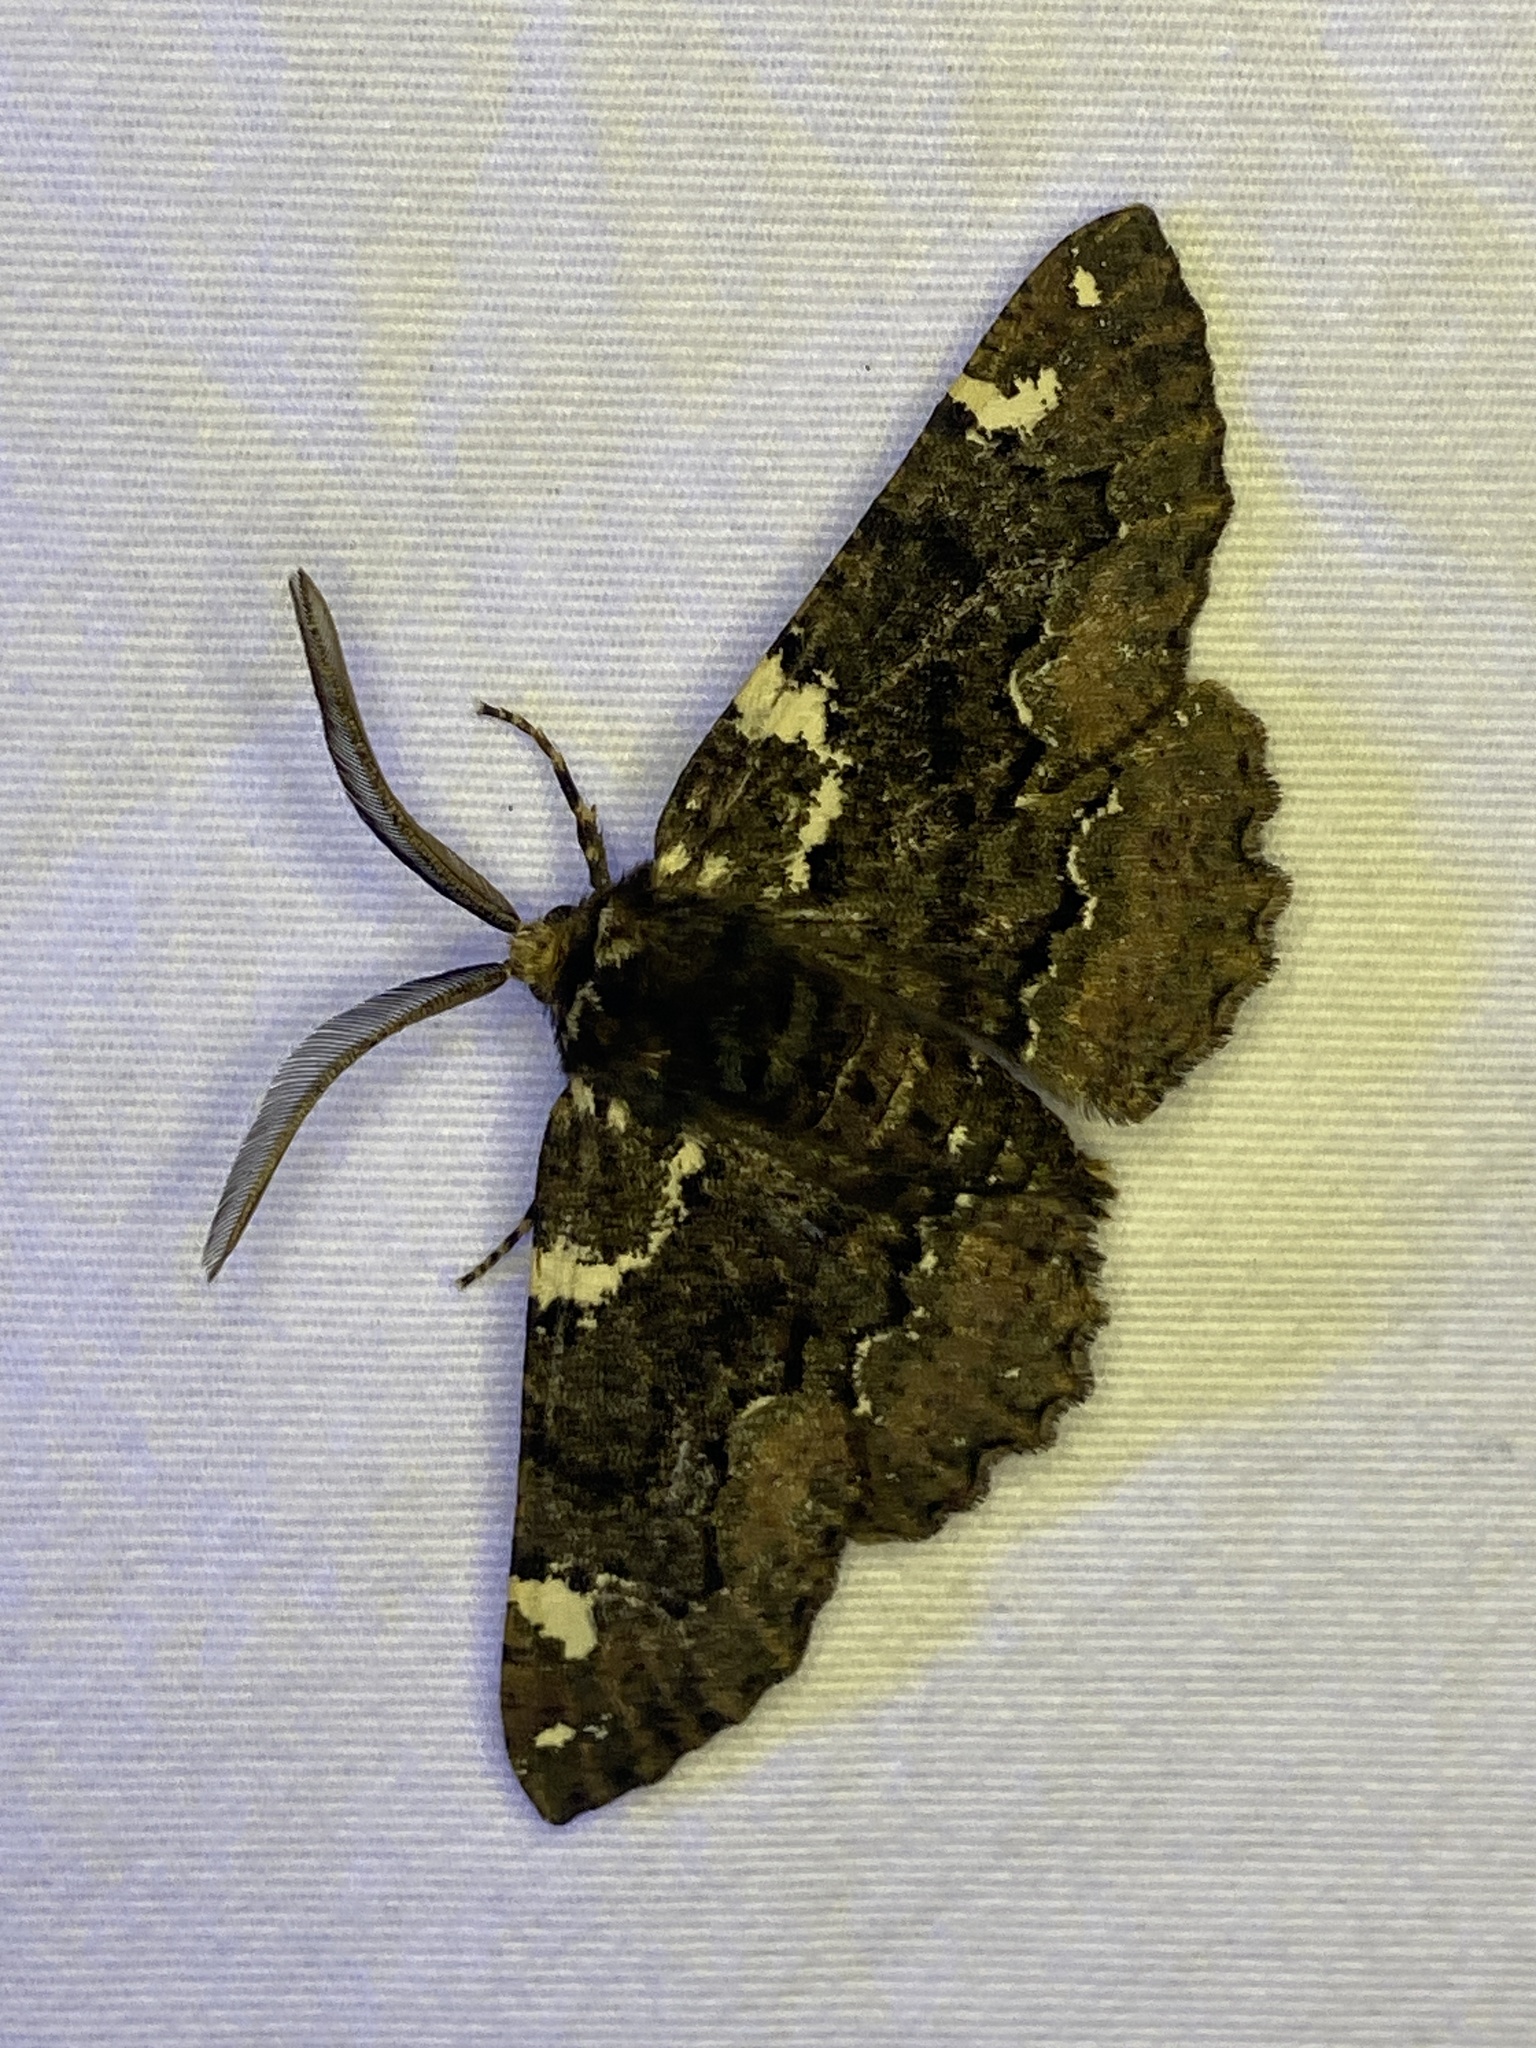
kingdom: Animalia
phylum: Arthropoda
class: Insecta
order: Lepidoptera
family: Geometridae
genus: Phaeoura
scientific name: Phaeoura quernaria
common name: Oak beauty
